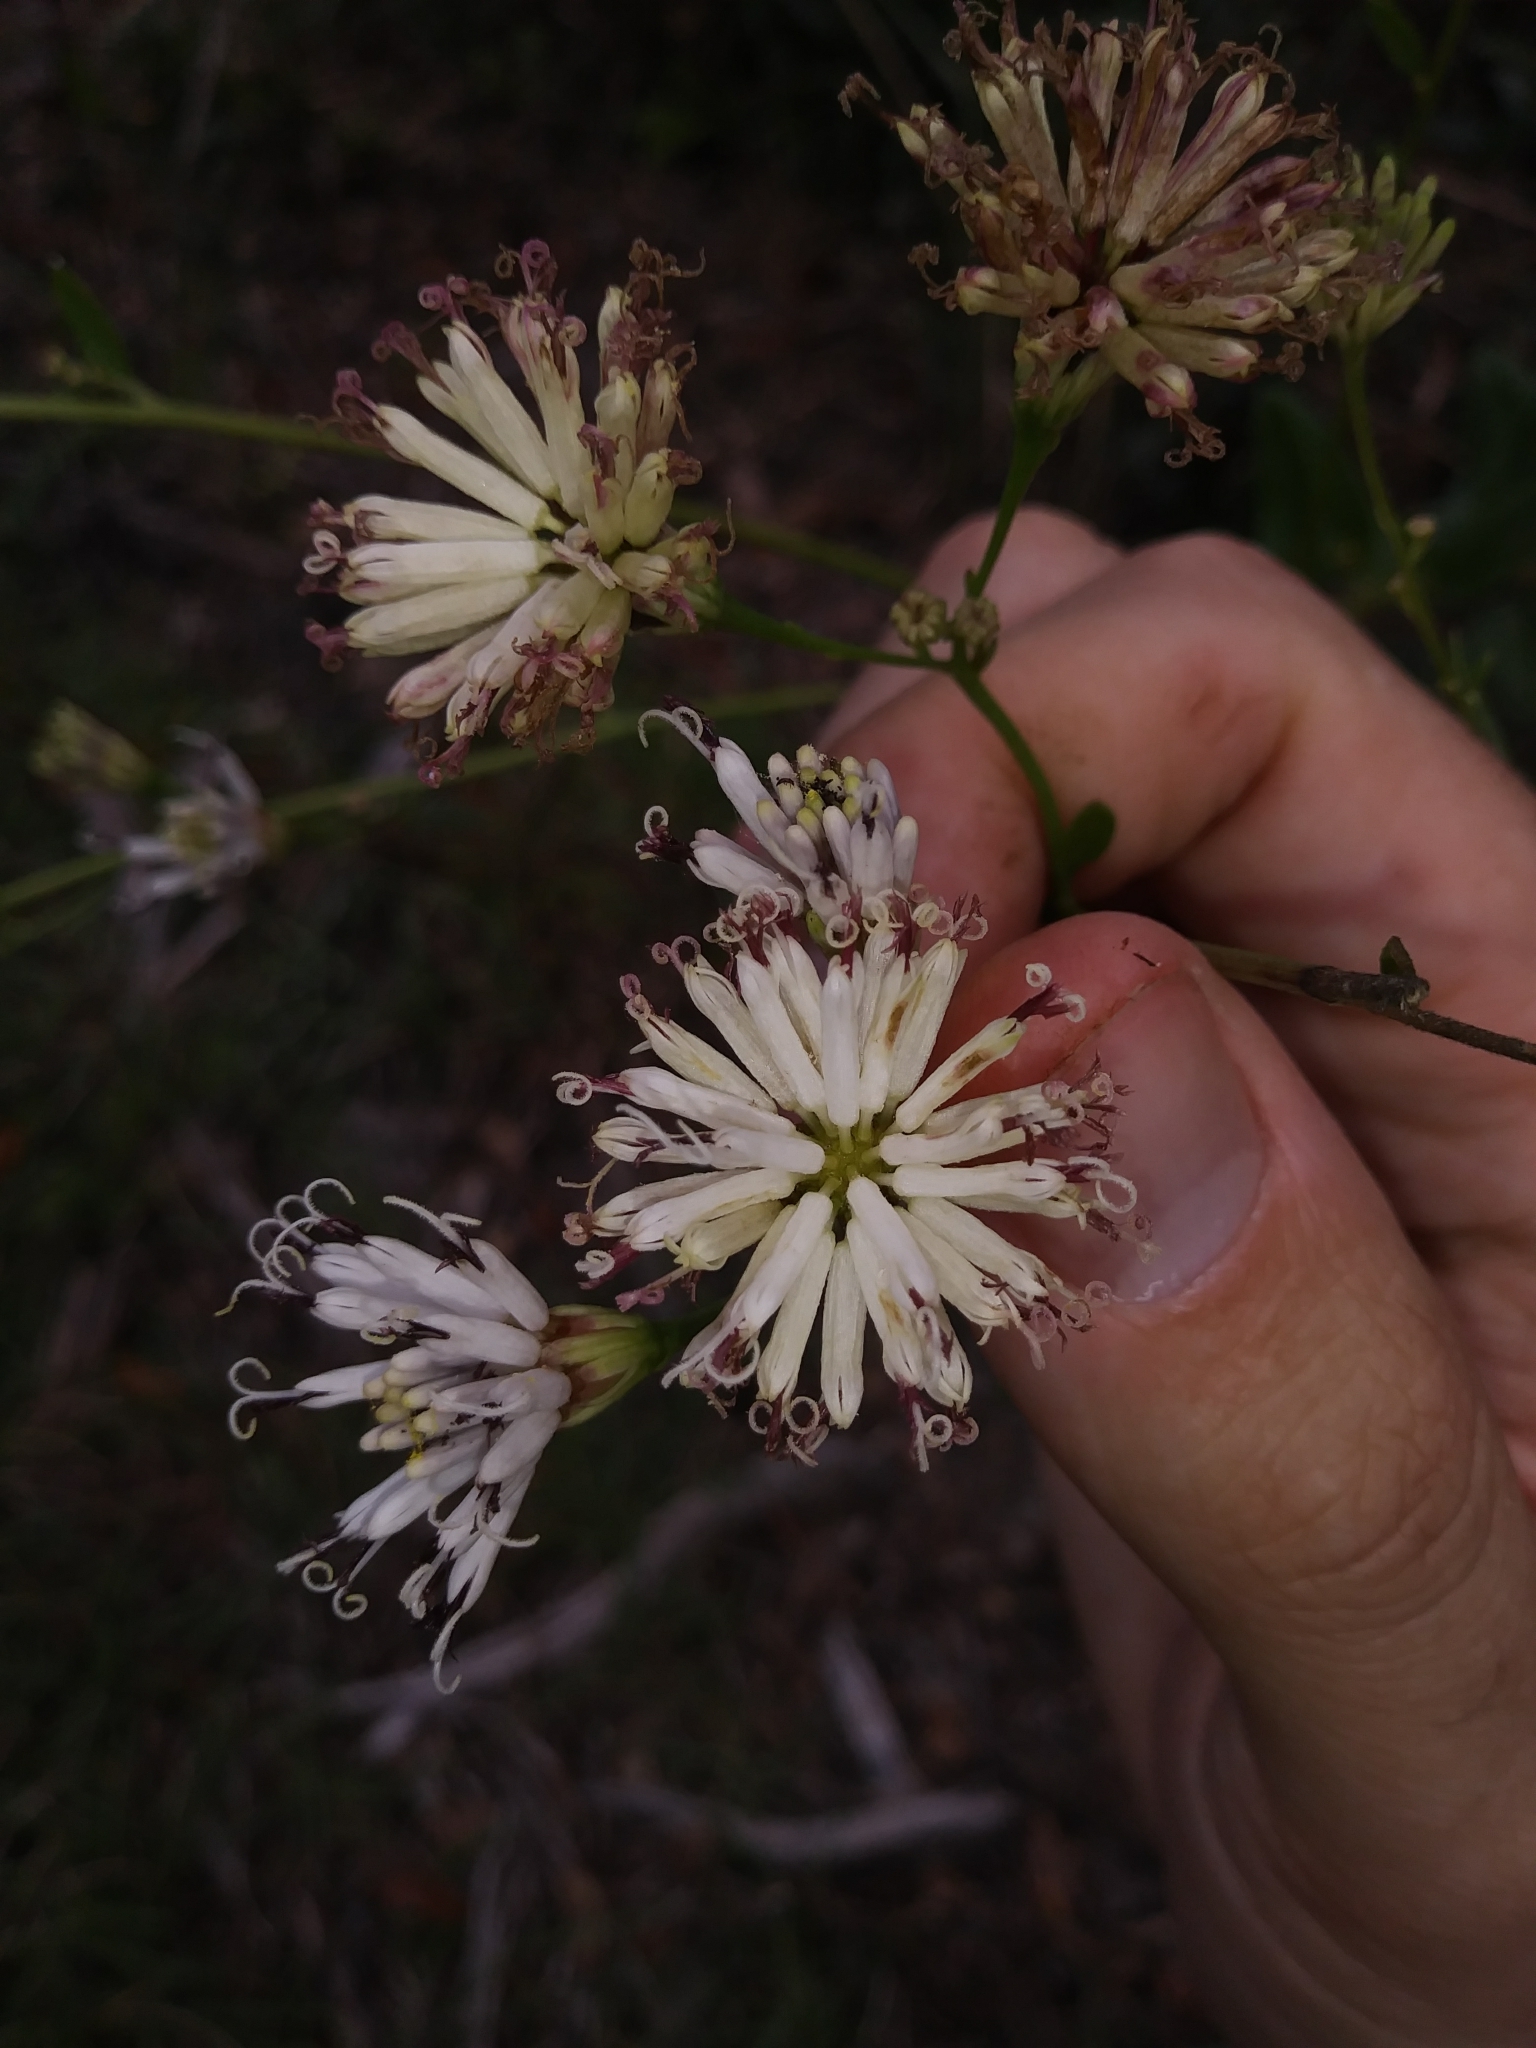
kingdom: Plantae
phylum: Tracheophyta
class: Magnoliopsida
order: Asterales
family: Asteraceae
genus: Palafoxia
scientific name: Palafoxia feayi
